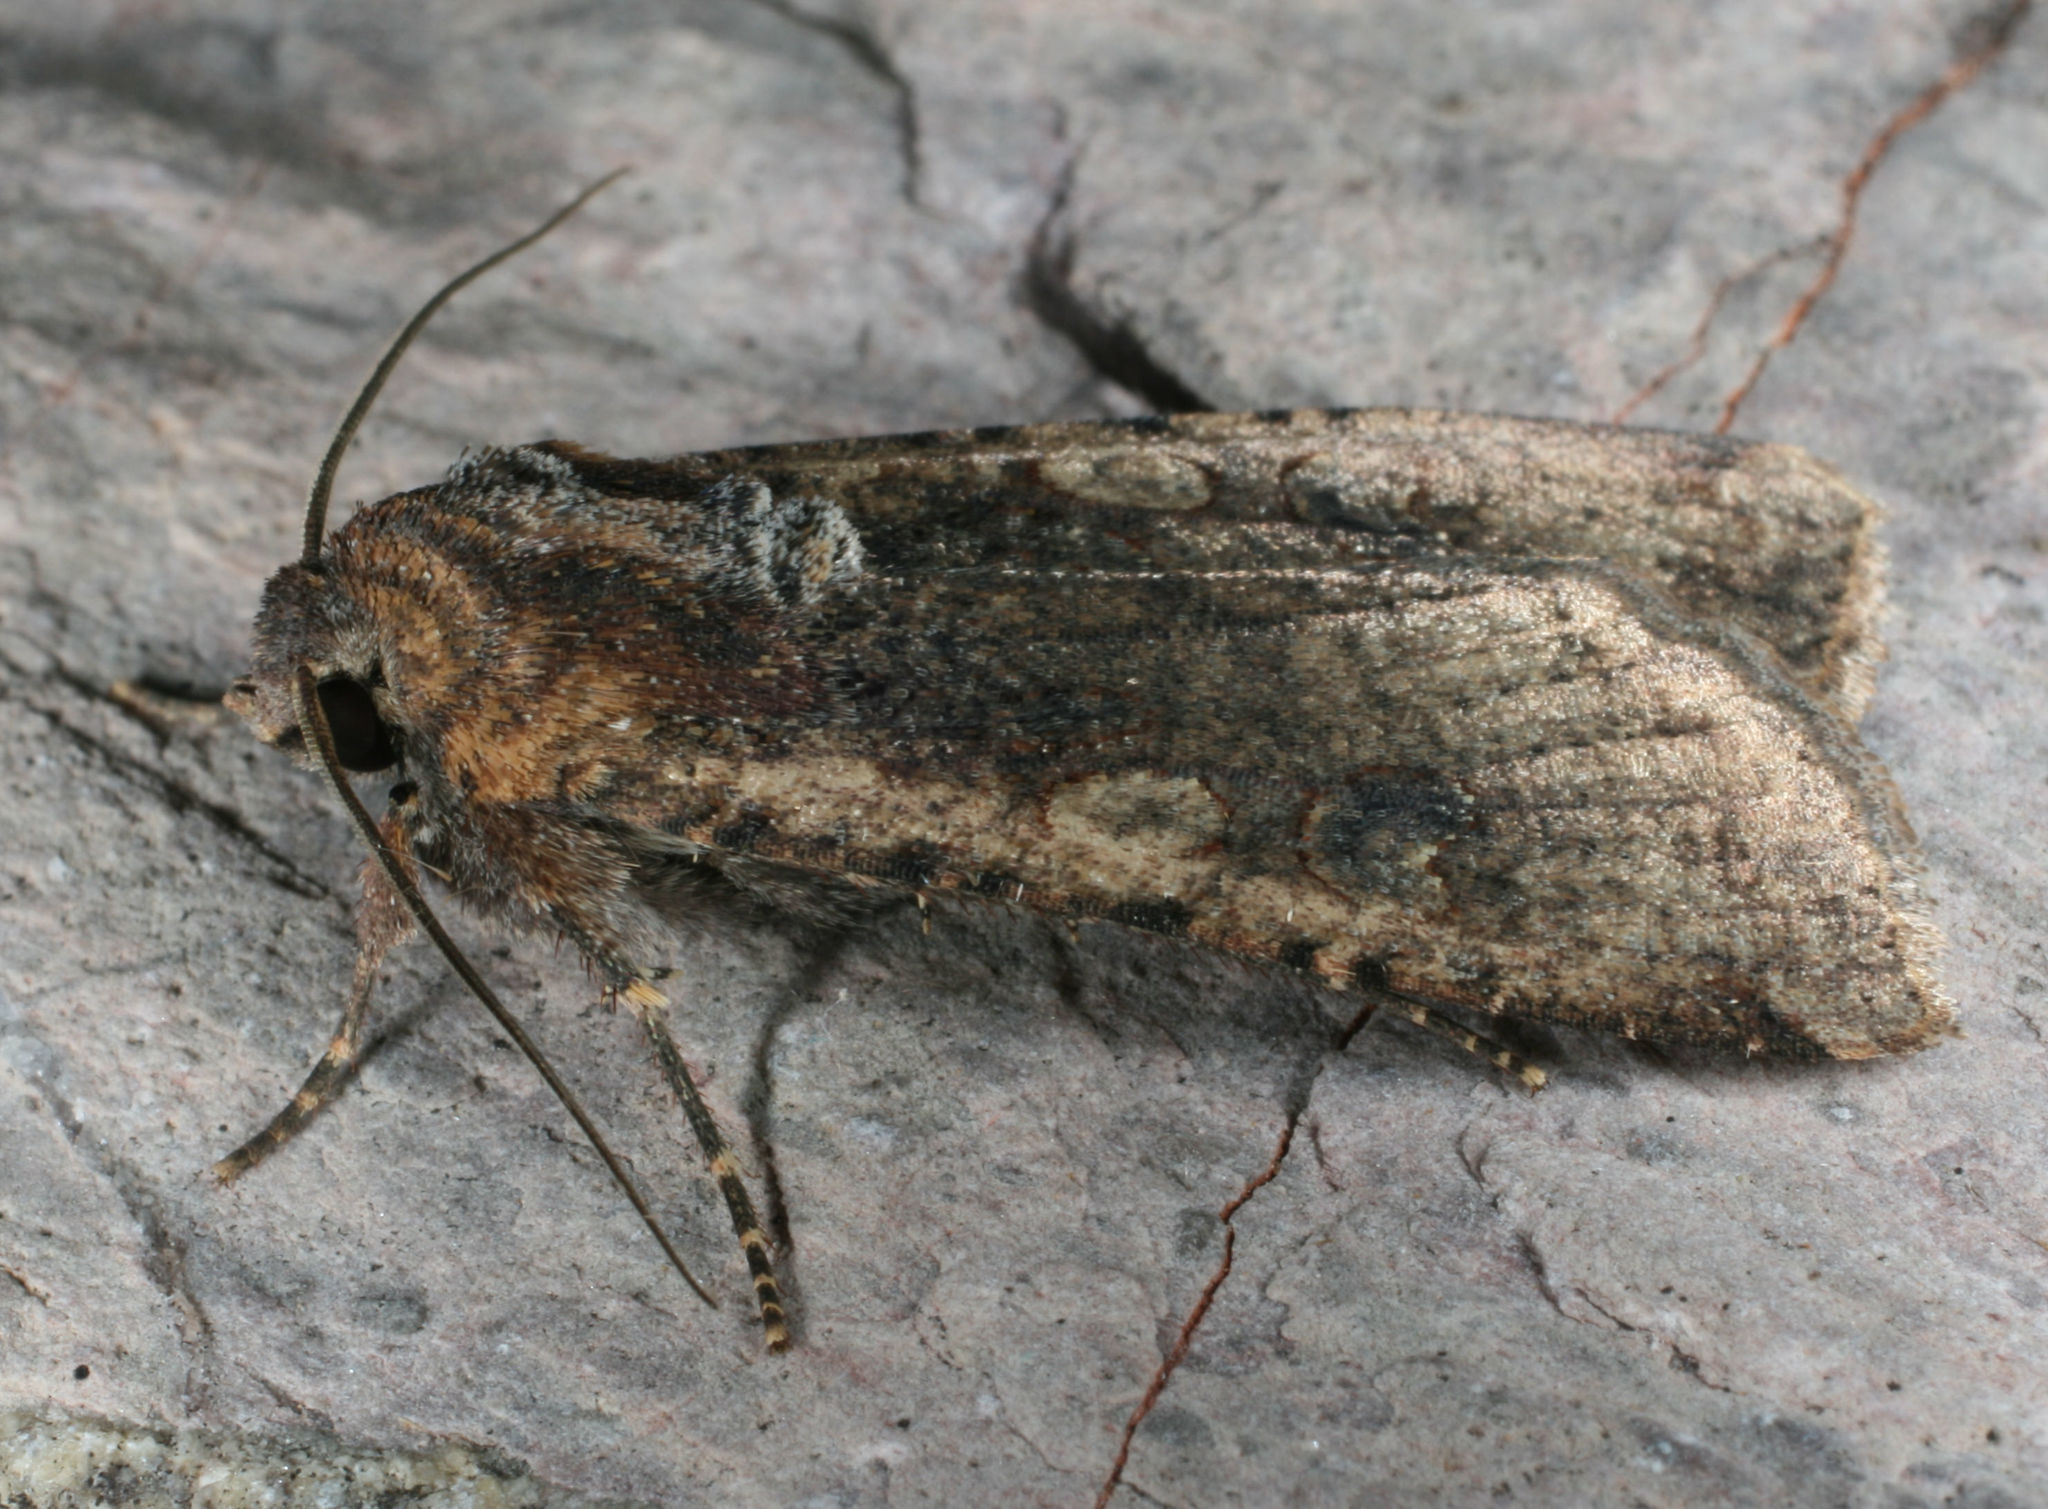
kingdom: Animalia
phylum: Arthropoda
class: Insecta
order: Lepidoptera
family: Noctuidae
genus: Peridroma
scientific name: Peridroma saucia
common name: Pearly underwing
